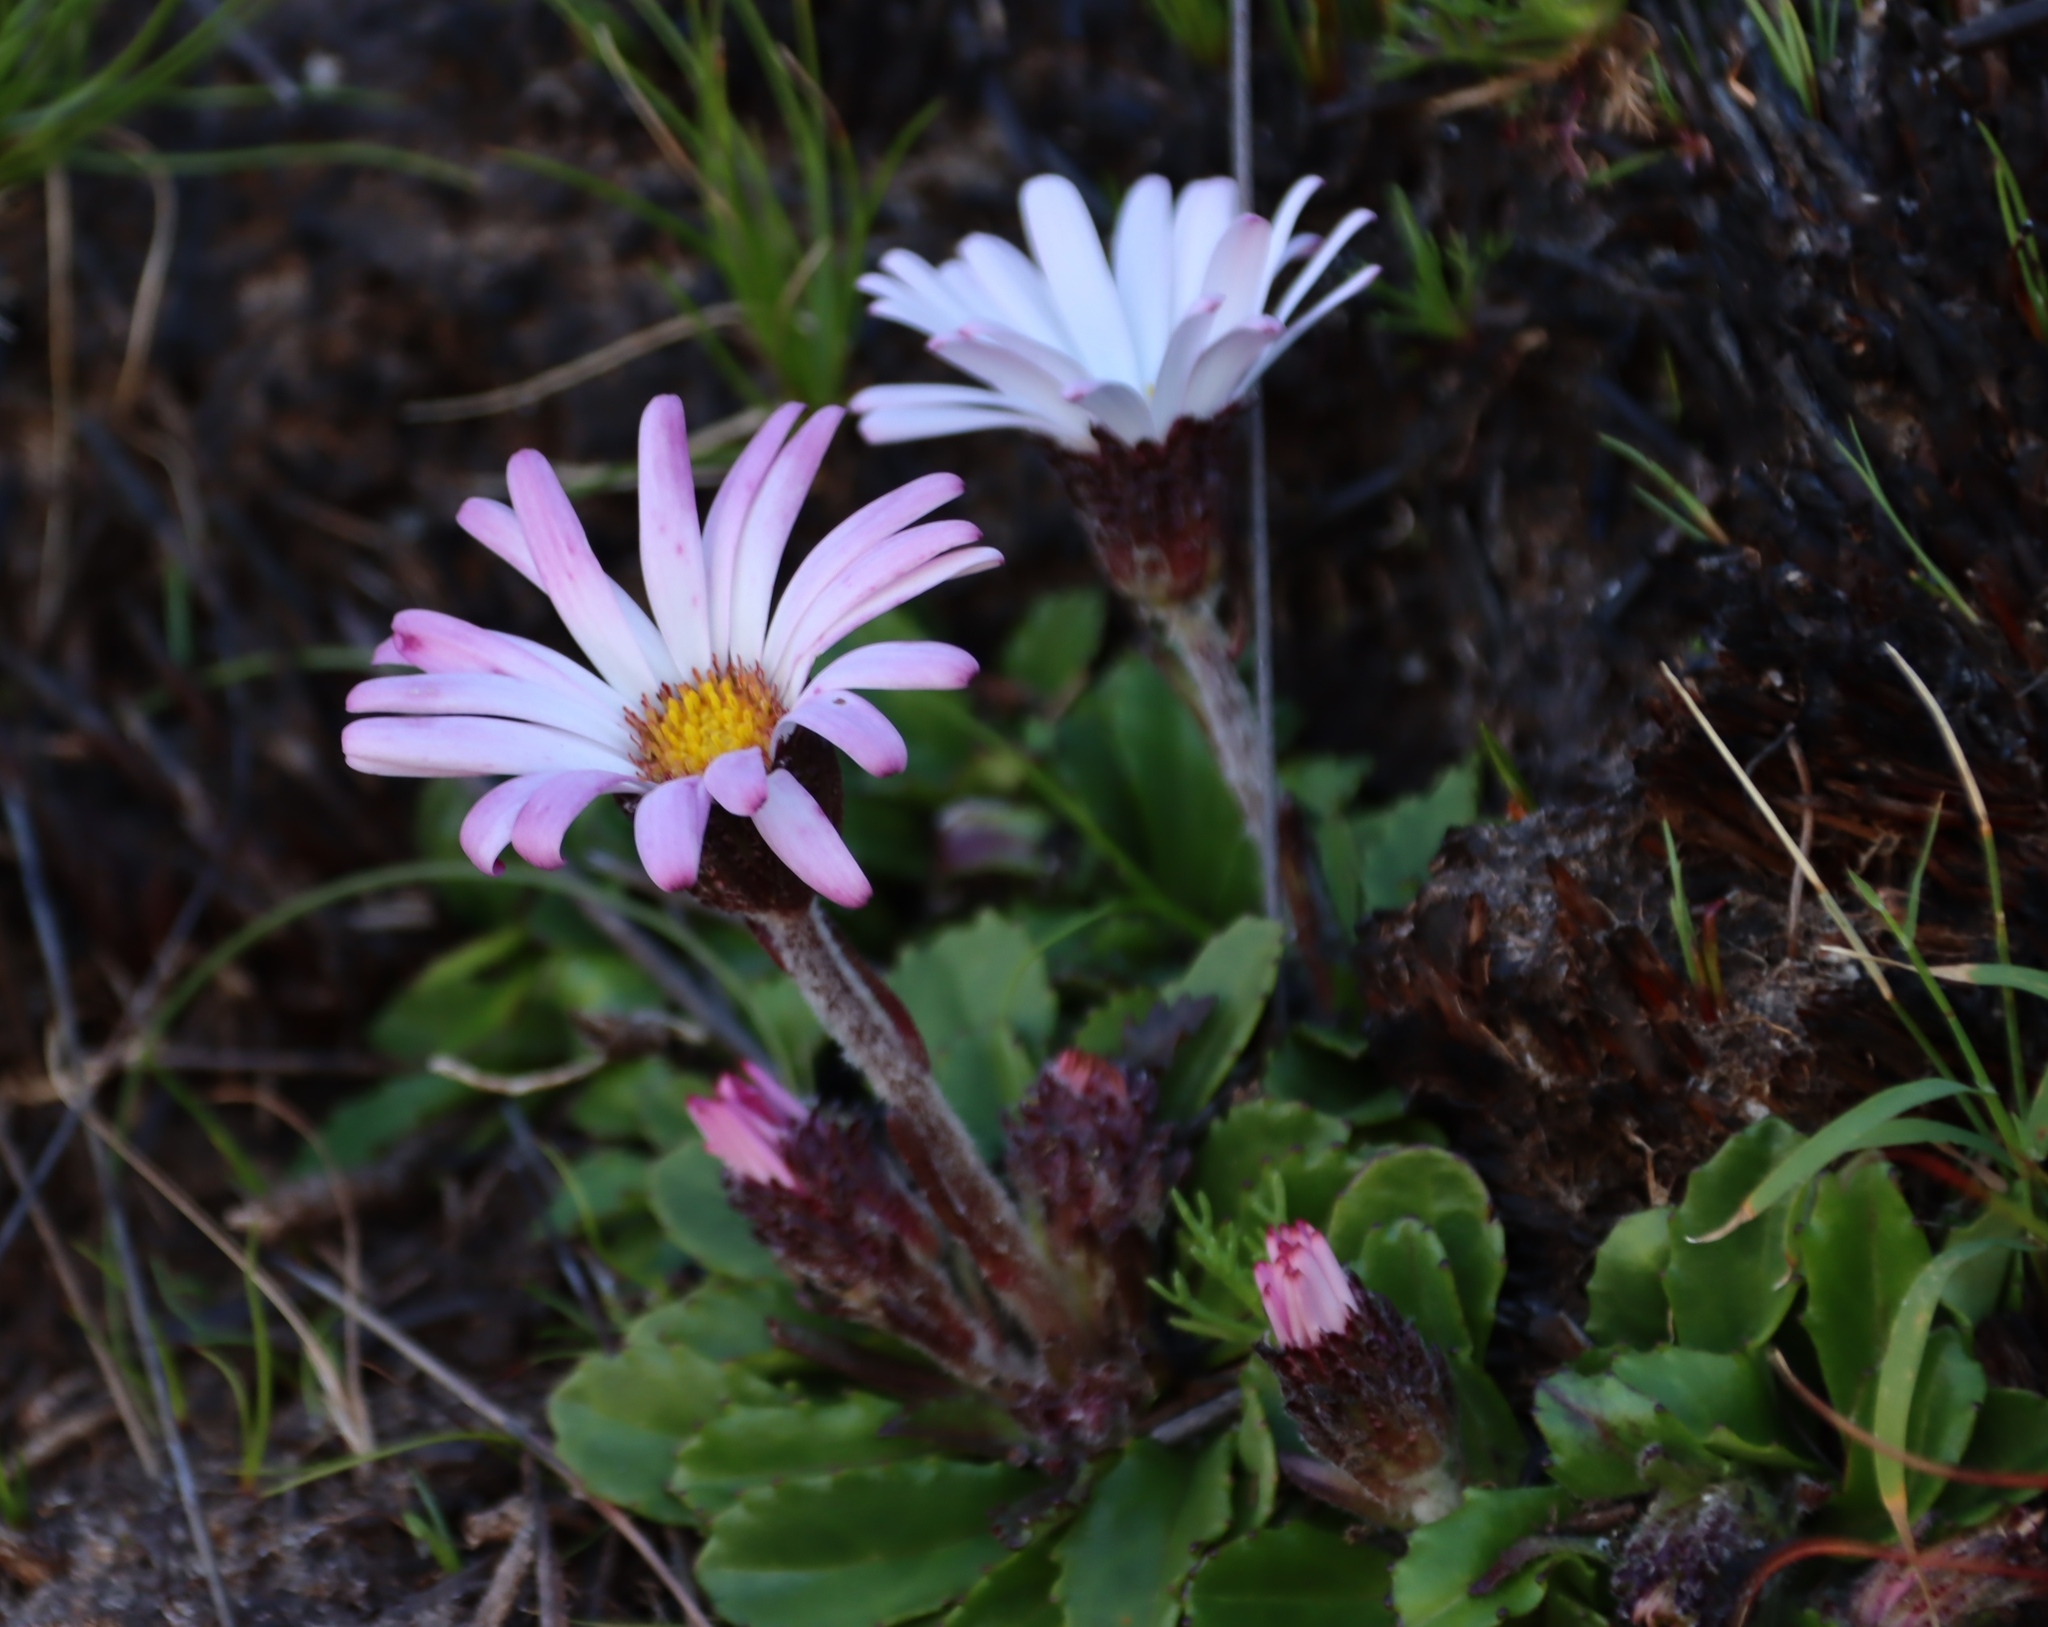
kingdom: Plantae
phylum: Tracheophyta
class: Magnoliopsida
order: Asterales
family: Asteraceae
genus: Zyrphelis
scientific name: Zyrphelis crenata
